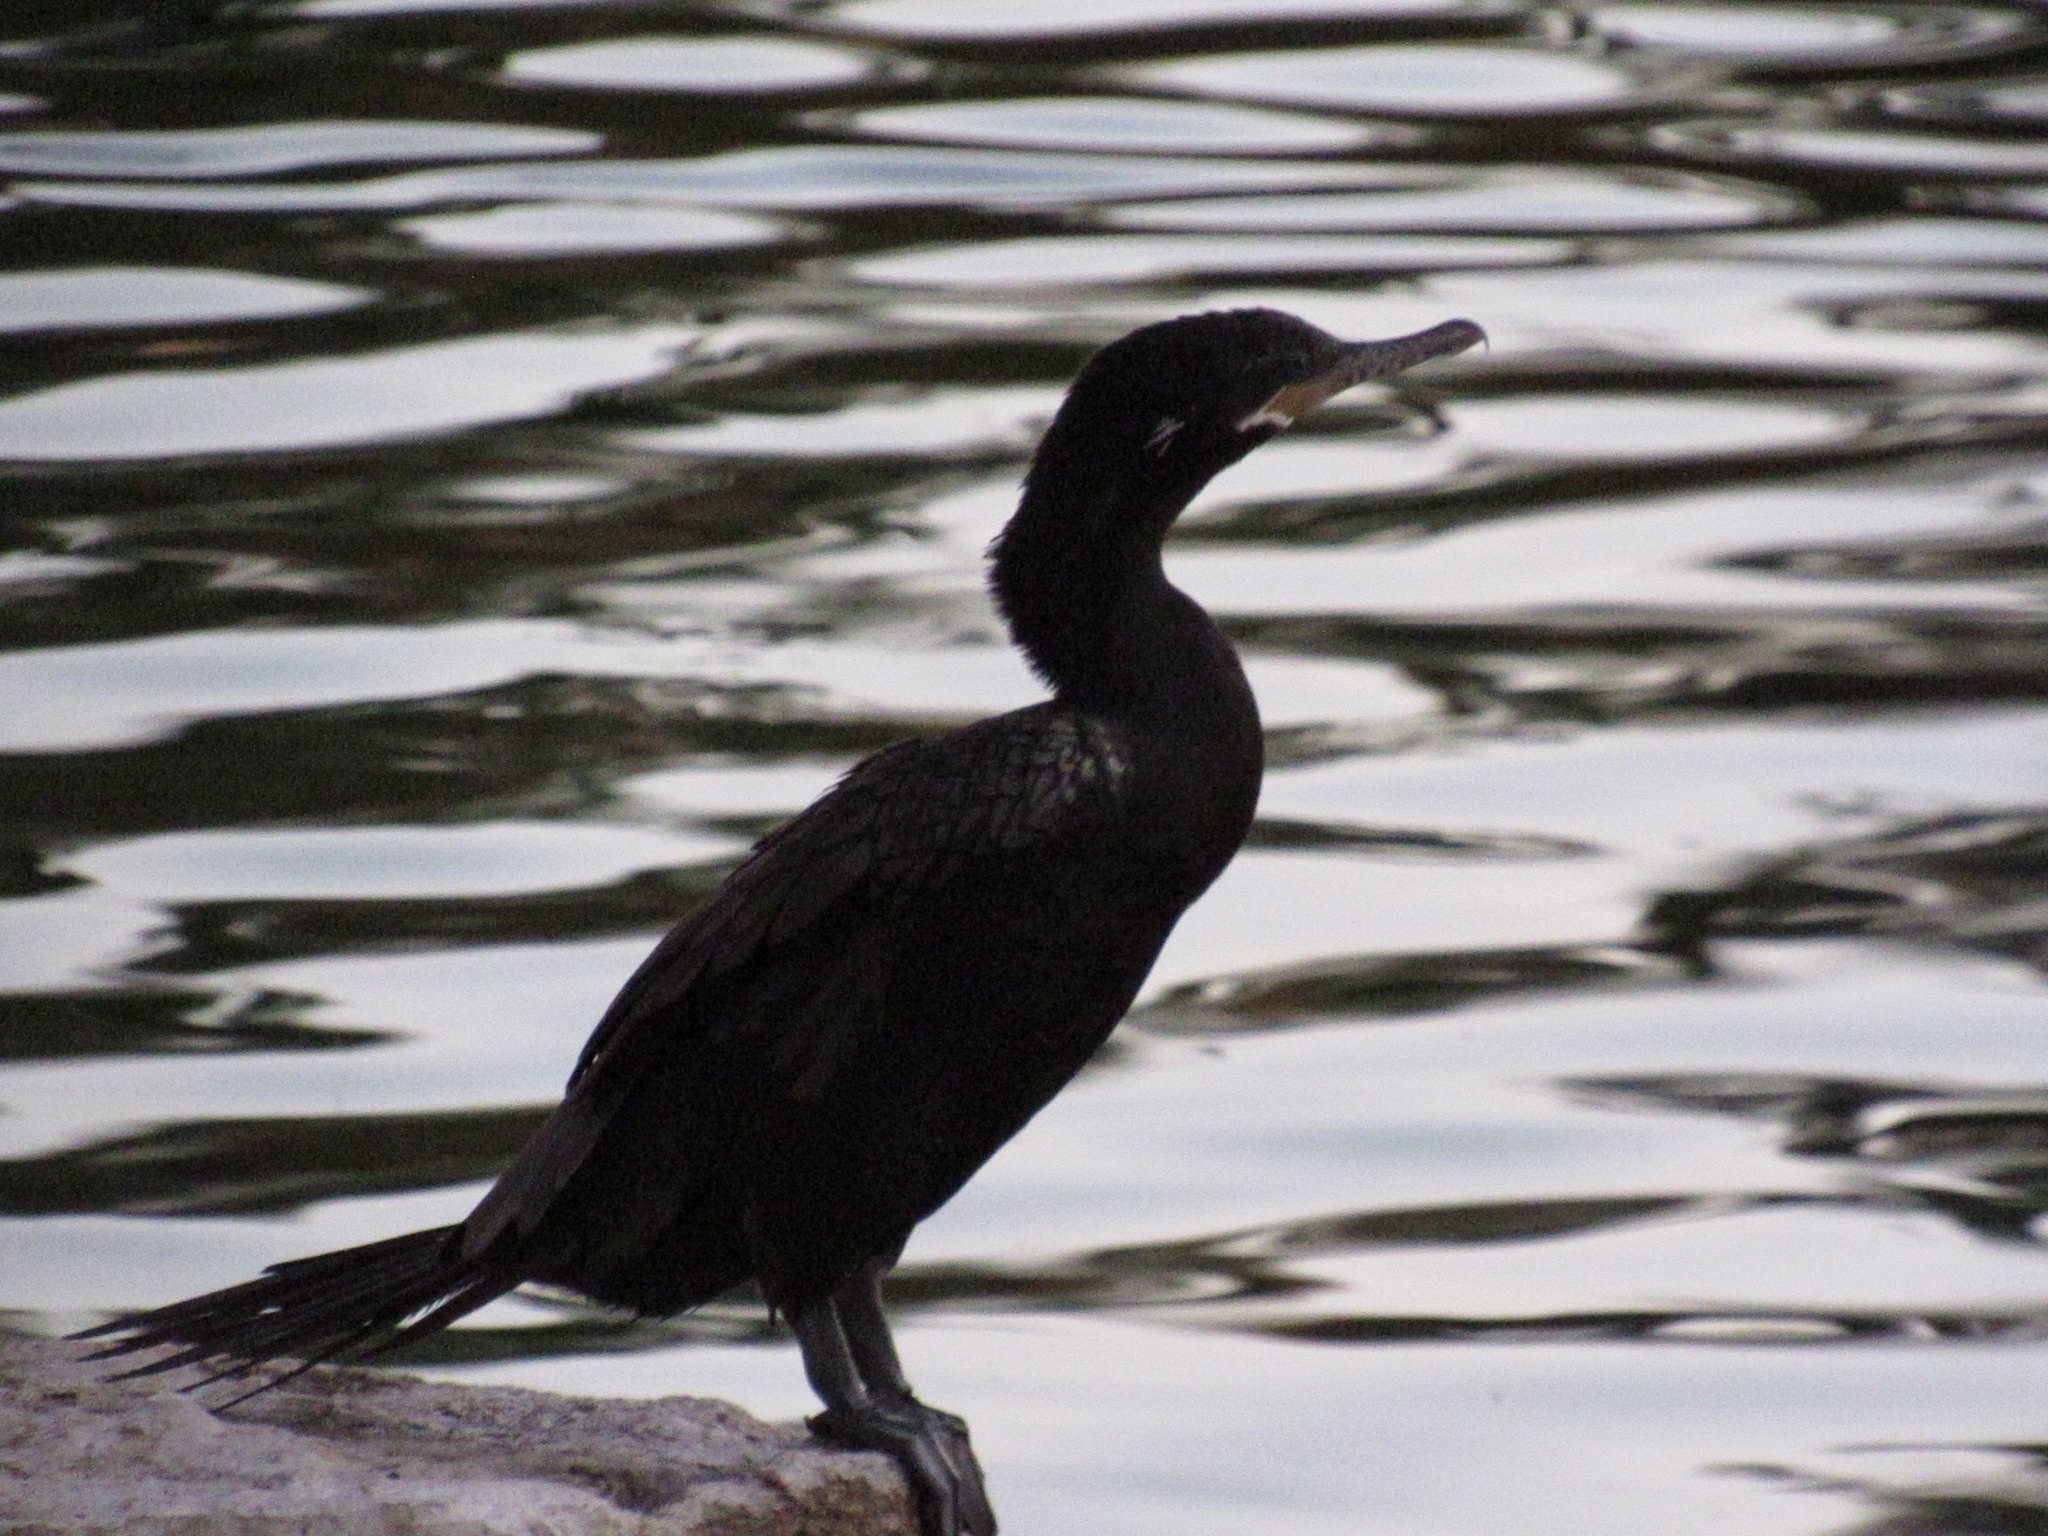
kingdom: Animalia
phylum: Chordata
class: Aves
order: Suliformes
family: Phalacrocoracidae
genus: Phalacrocorax
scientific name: Phalacrocorax brasilianus
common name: Neotropic cormorant
